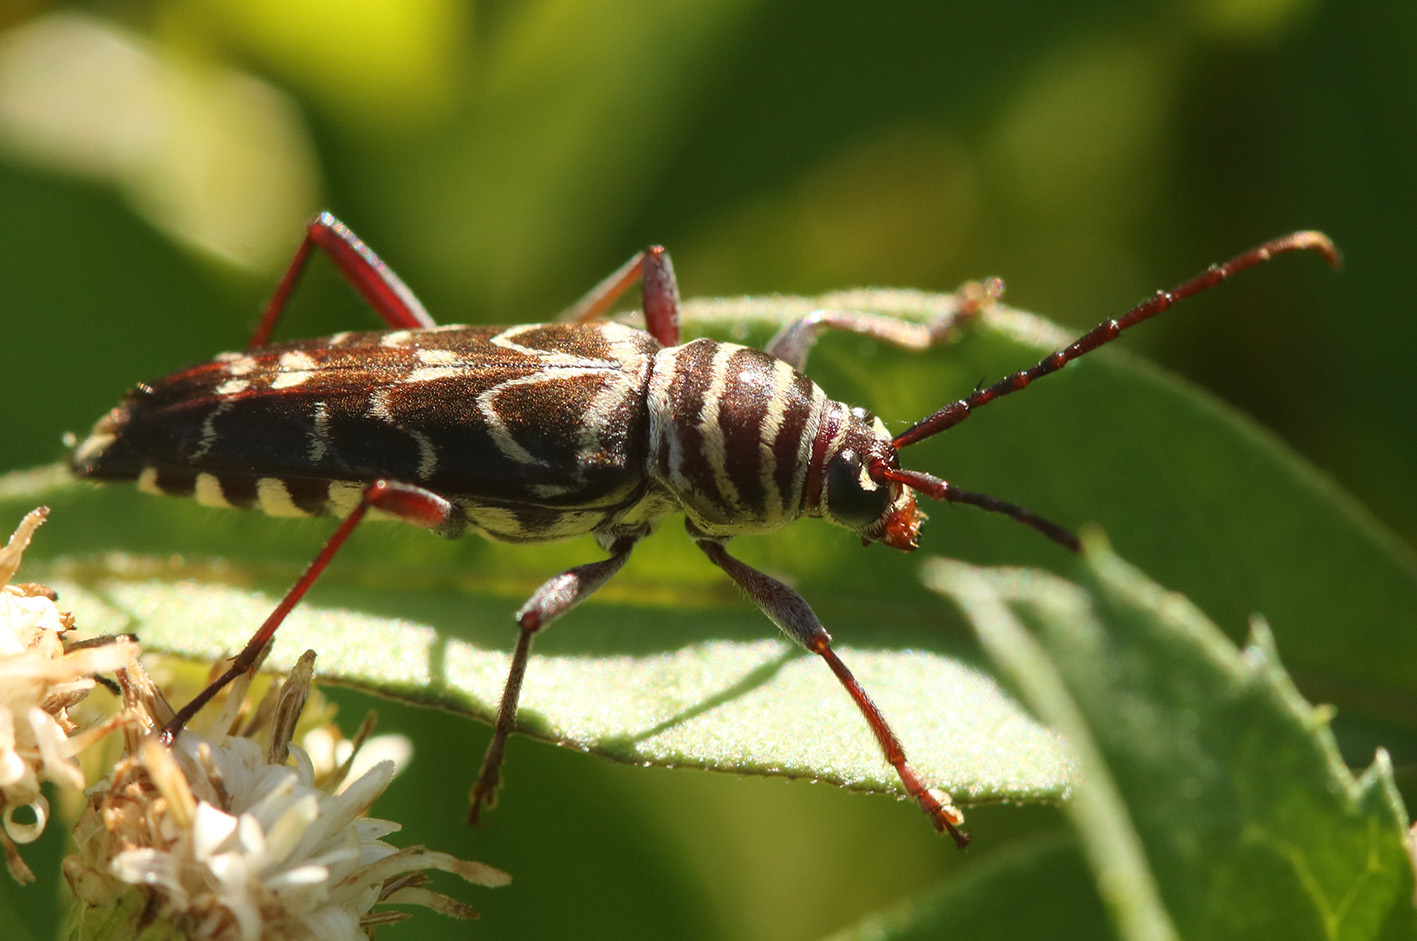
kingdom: Animalia
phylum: Arthropoda
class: Insecta
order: Coleoptera
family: Cerambycidae
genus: Megacyllene
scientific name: Megacyllene acuta
